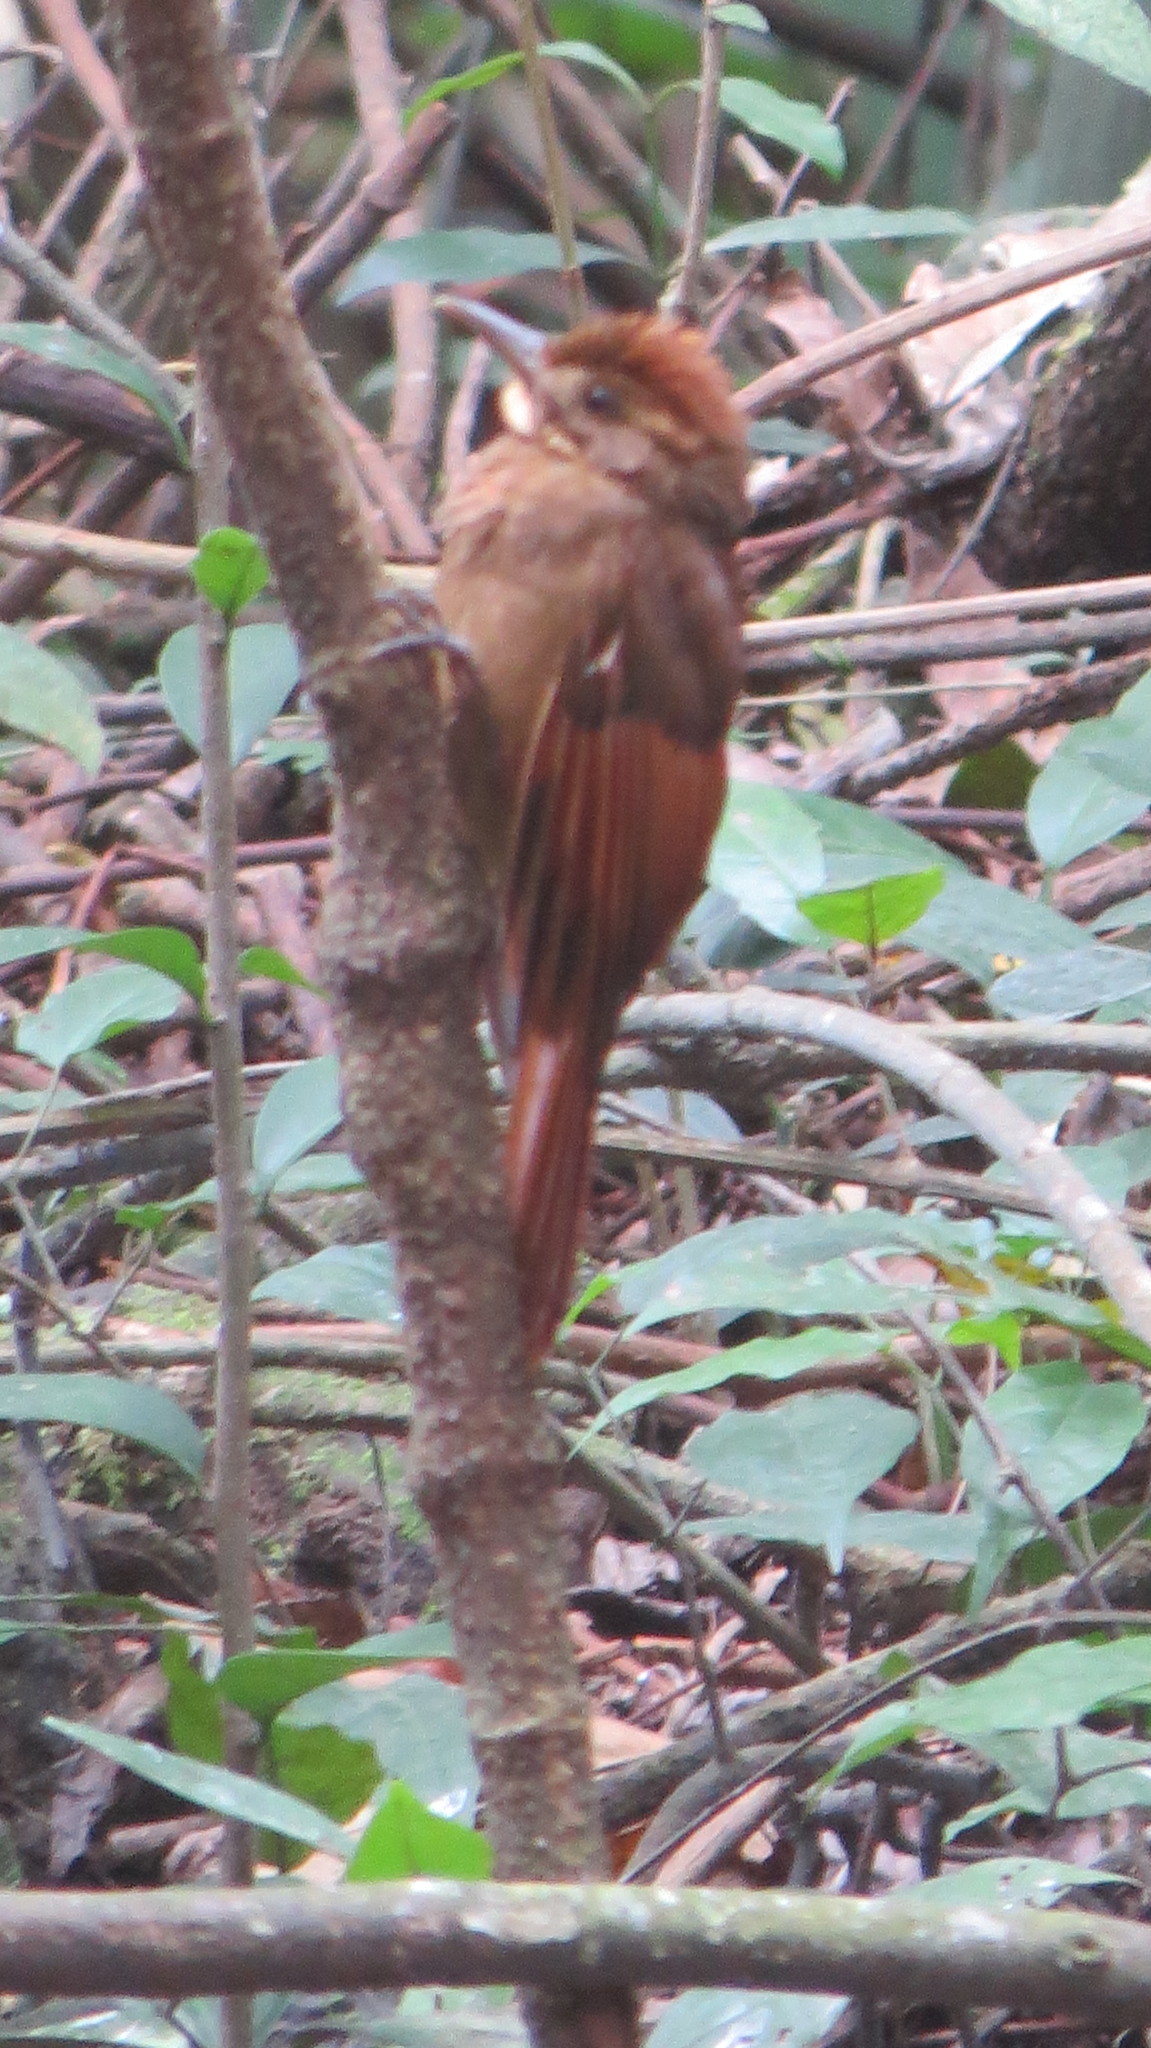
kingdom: Animalia
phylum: Chordata
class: Aves
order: Passeriformes
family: Furnariidae
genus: Dendrocincla
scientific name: Dendrocincla anabatina
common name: Tawny-winged woodcreeper
